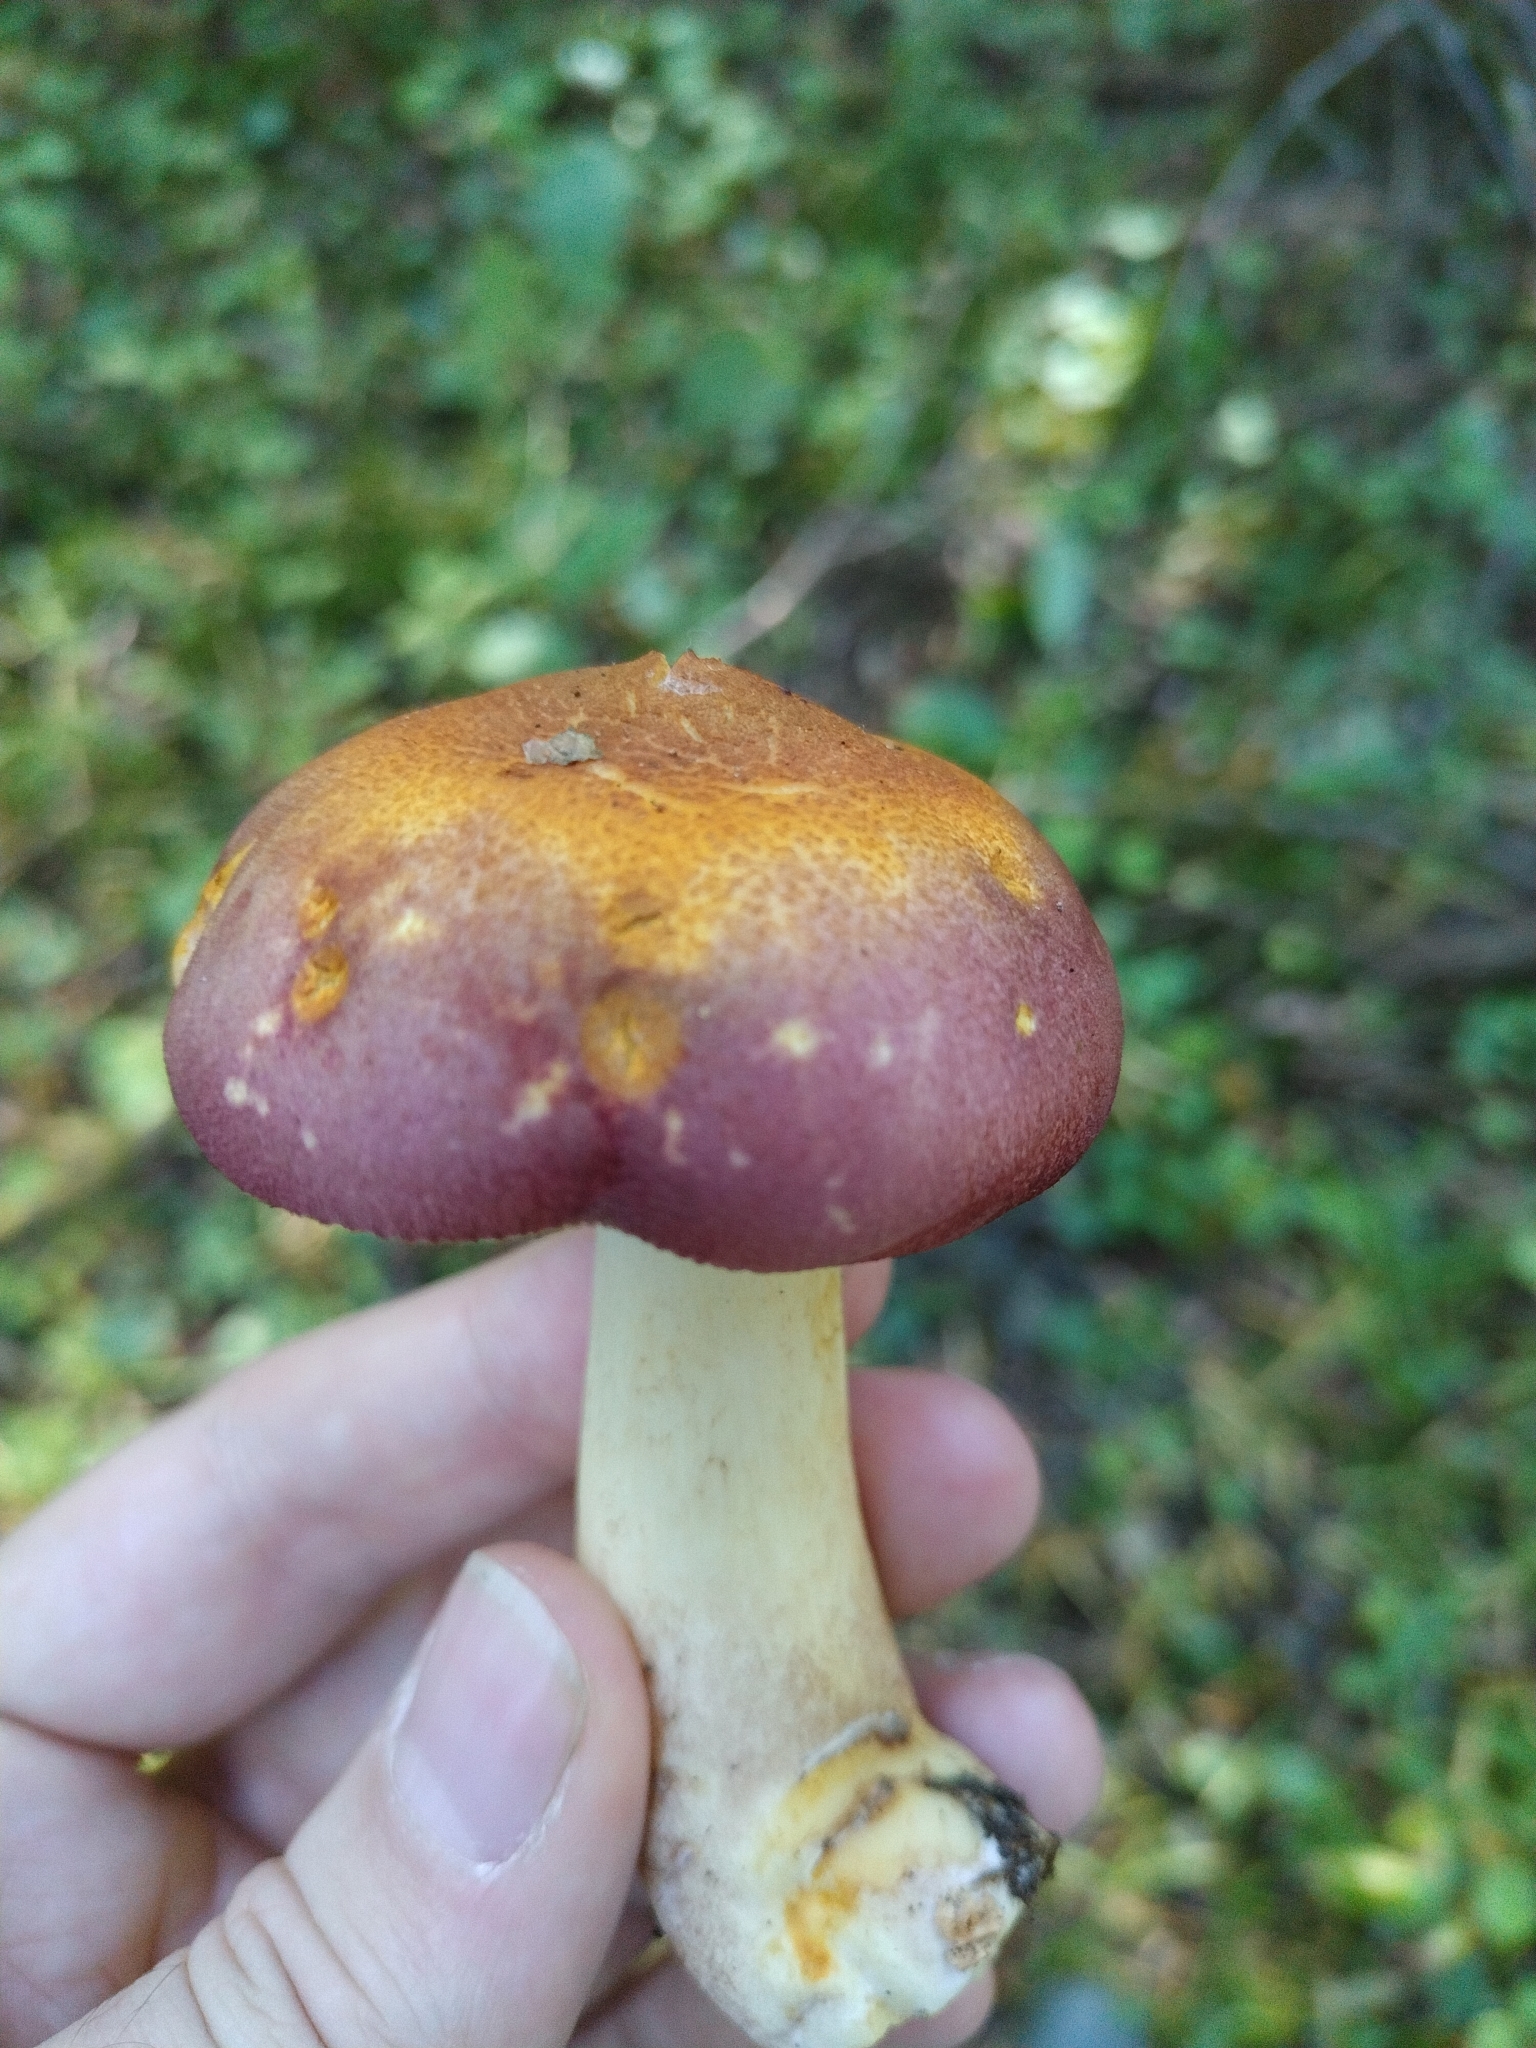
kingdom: Fungi
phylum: Basidiomycota
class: Agaricomycetes
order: Agaricales
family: Tricholomataceae
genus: Tricholomopsis
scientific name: Tricholomopsis rutilans
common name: Plums and custard
